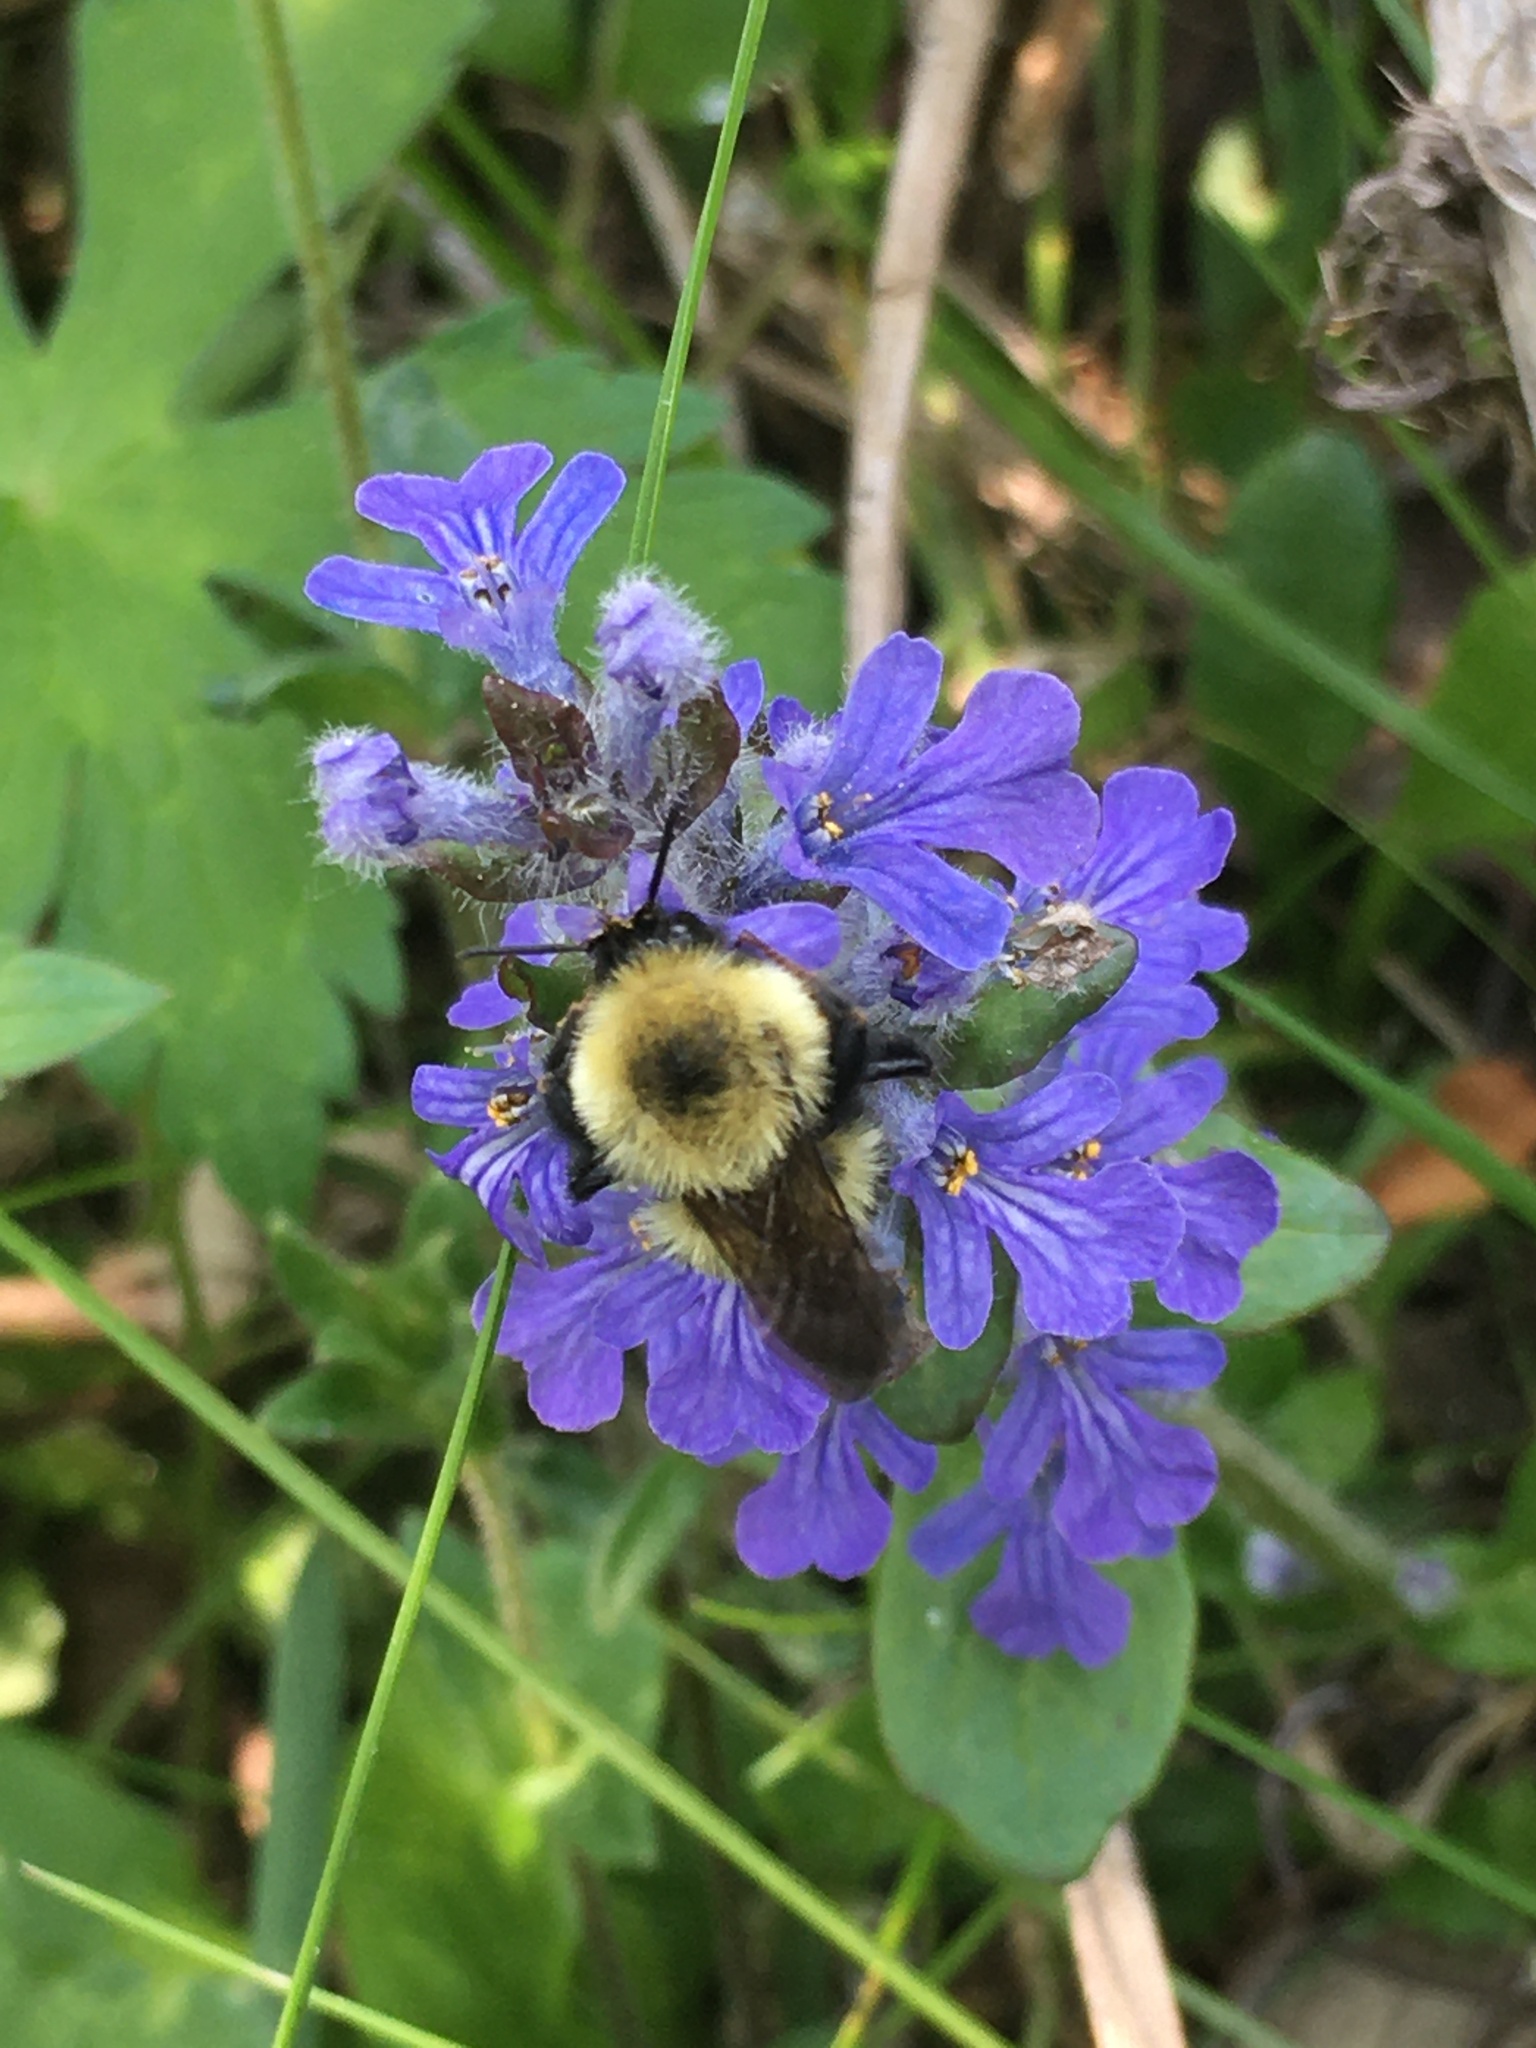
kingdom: Animalia
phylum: Arthropoda
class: Insecta
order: Hymenoptera
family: Apidae
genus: Bombus
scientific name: Bombus bimaculatus
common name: Two-spotted bumble bee
